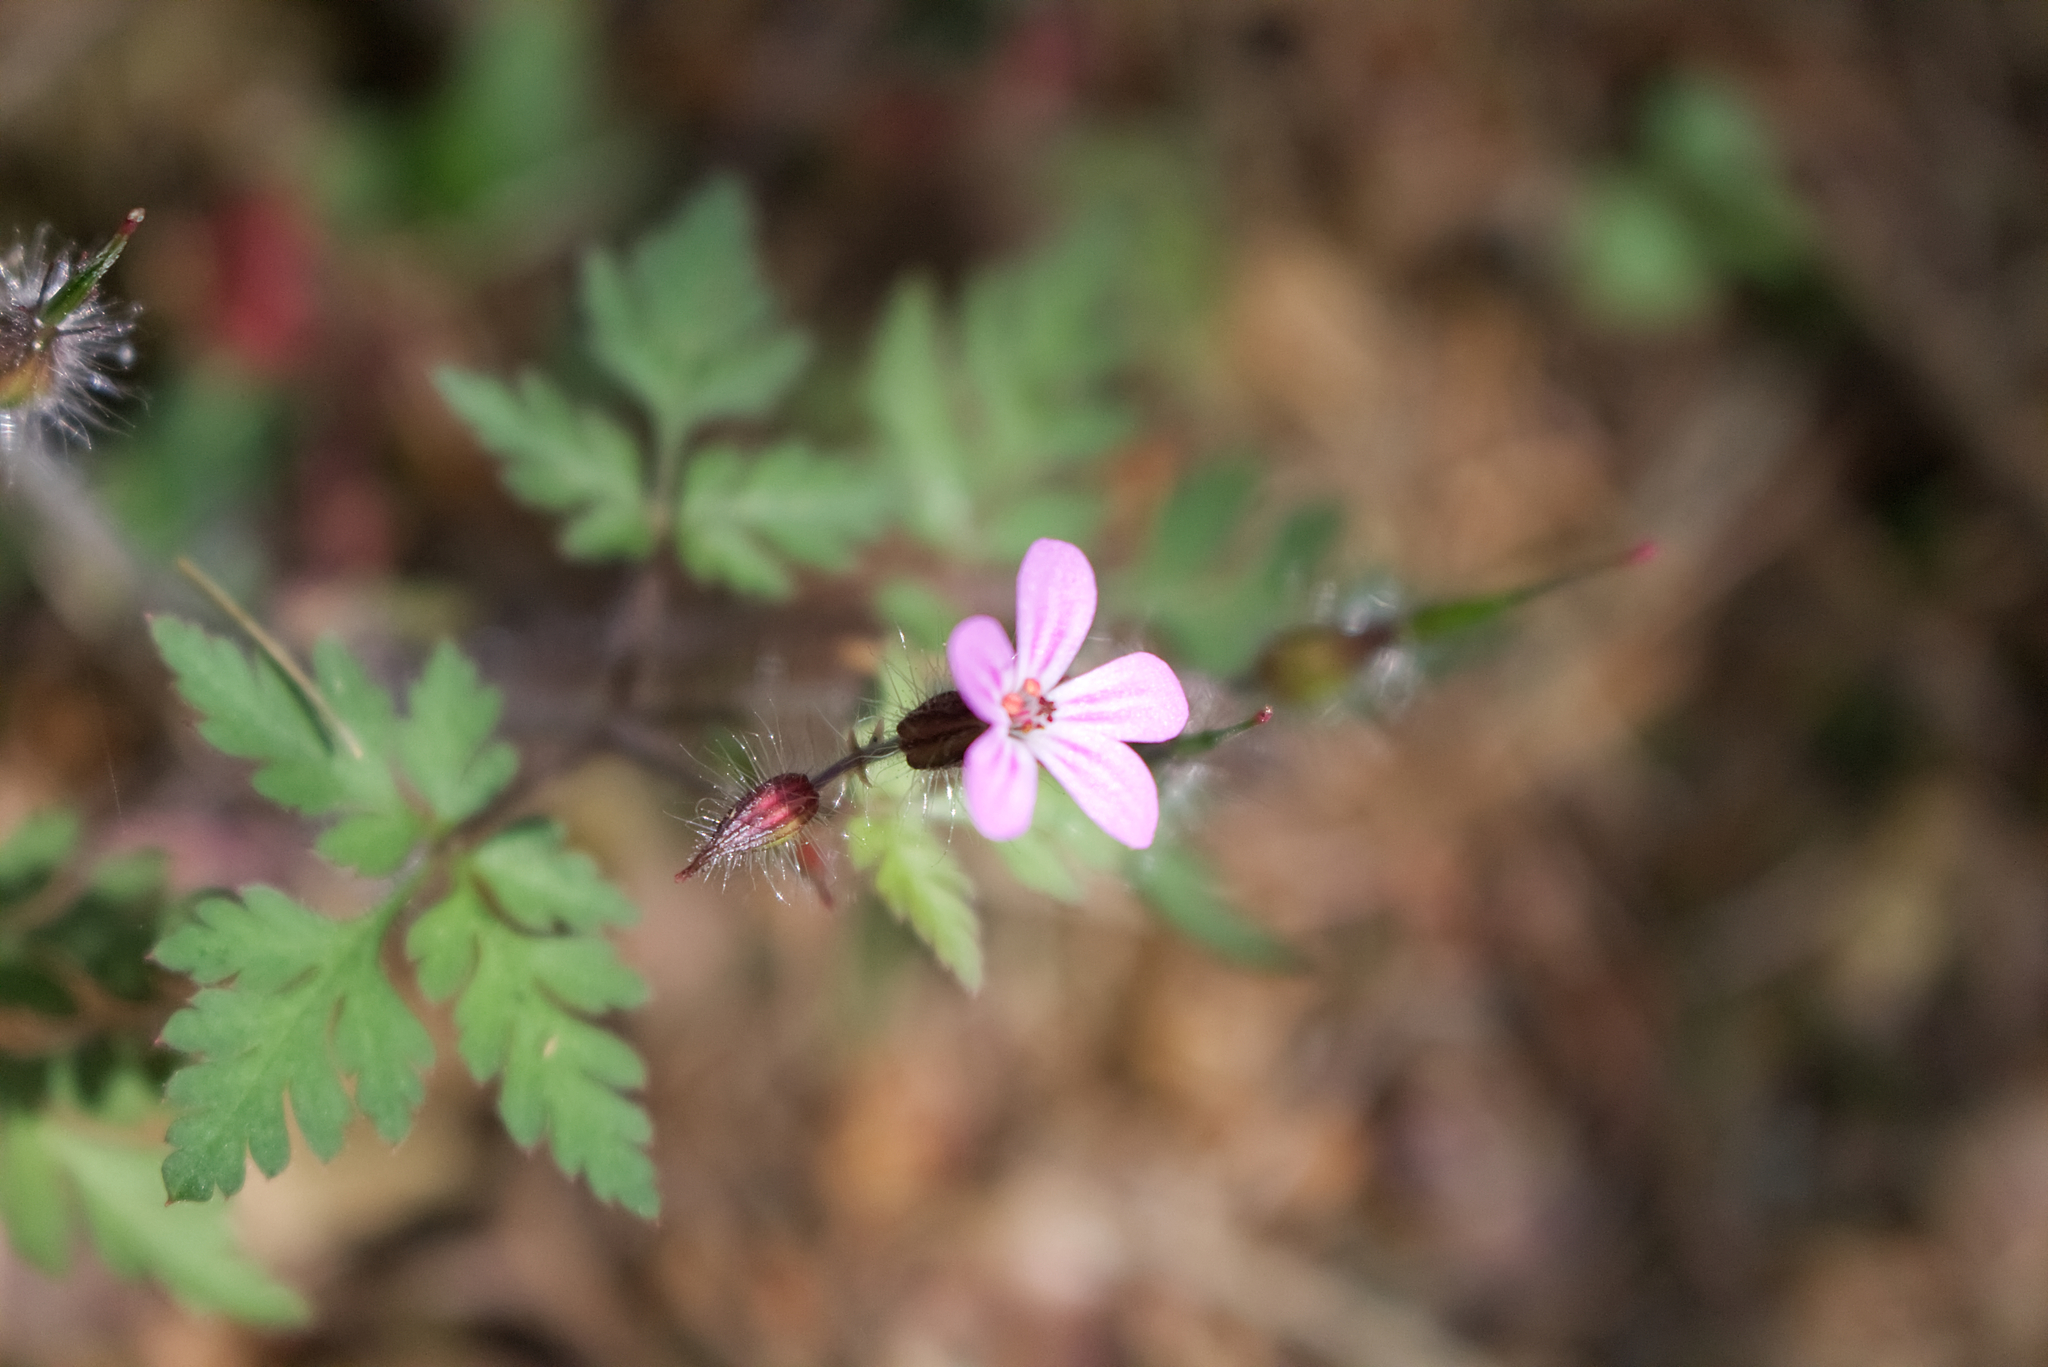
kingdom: Plantae
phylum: Tracheophyta
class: Magnoliopsida
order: Geraniales
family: Geraniaceae
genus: Geranium
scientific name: Geranium robertianum
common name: Herb-robert
